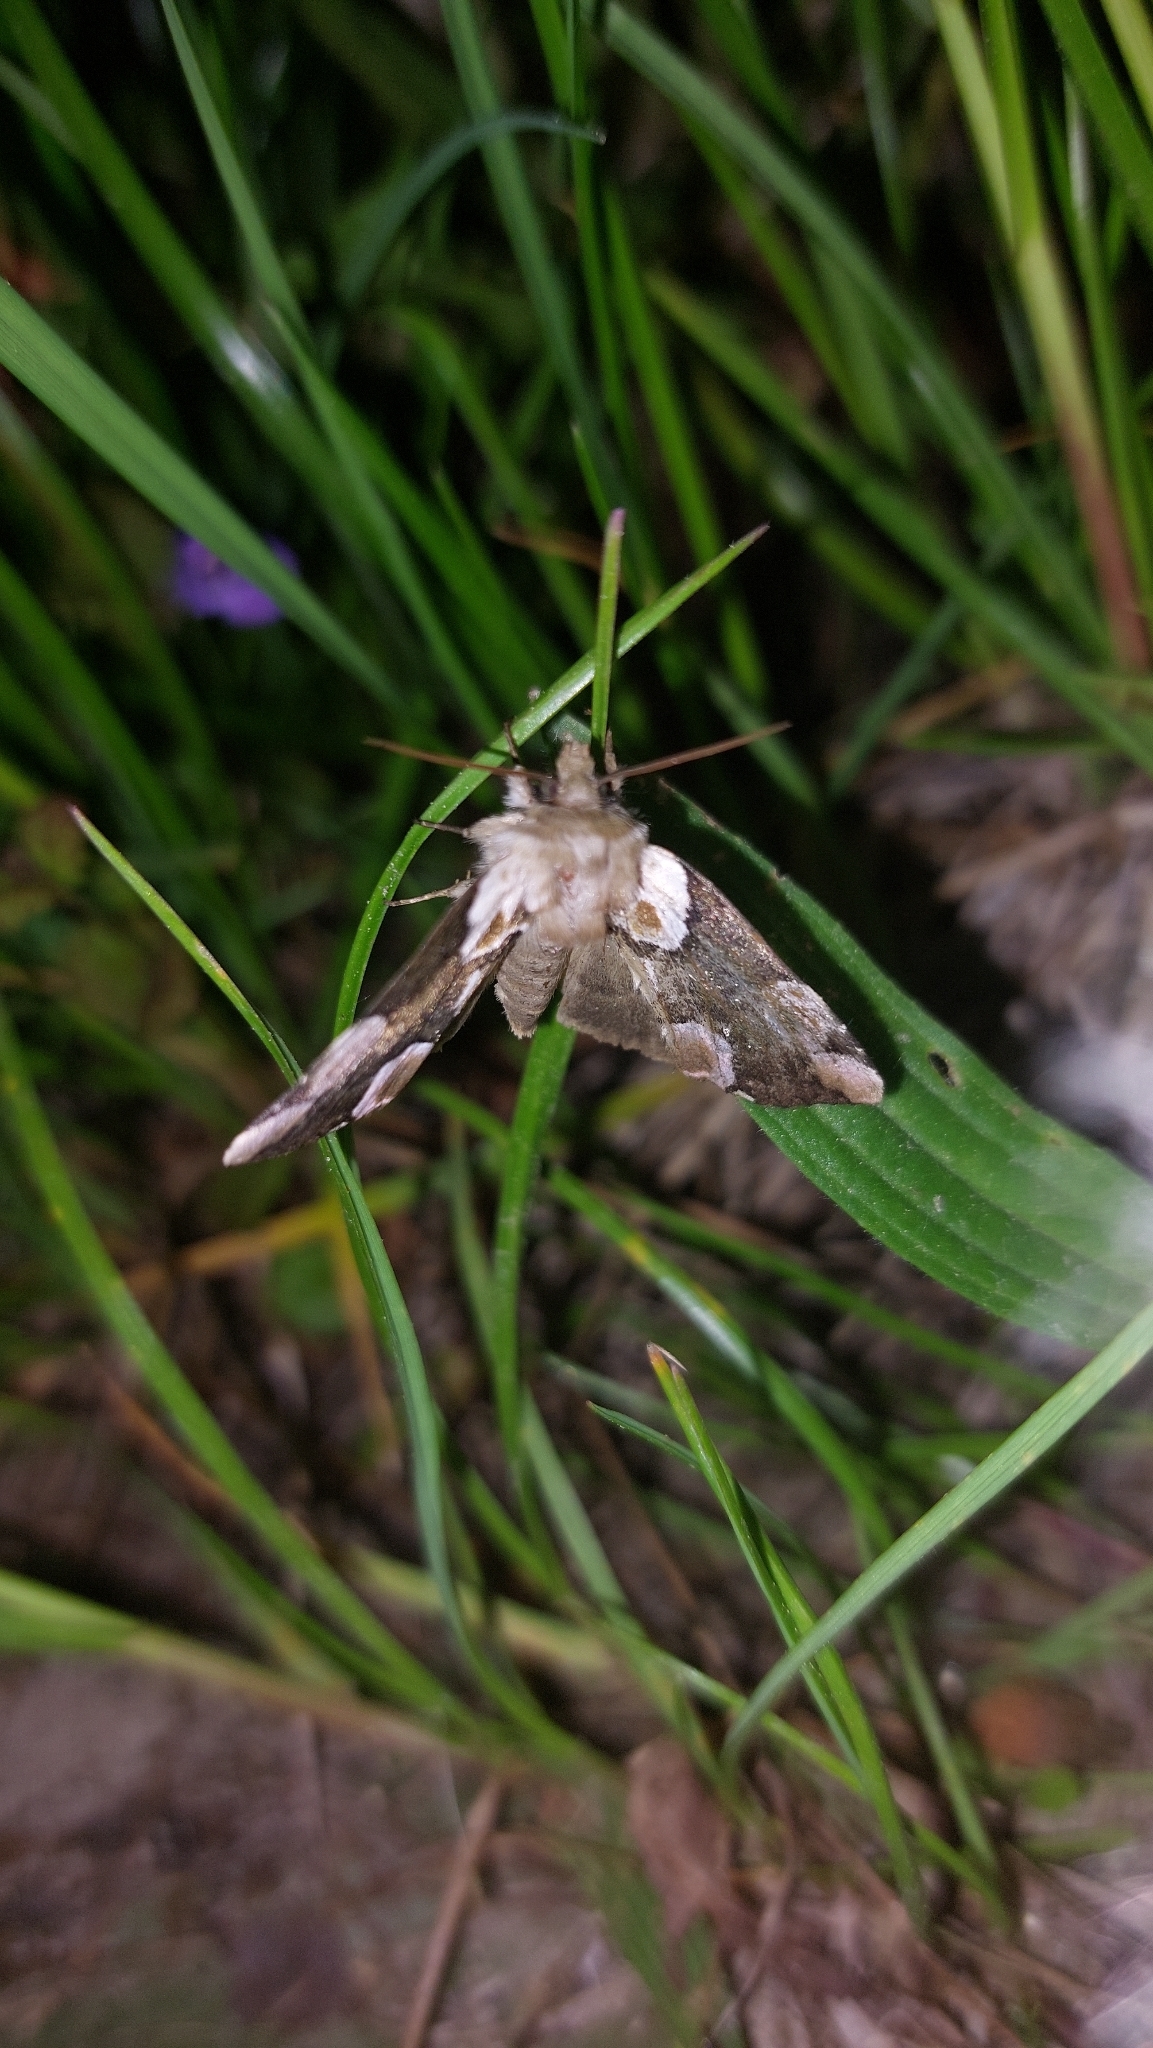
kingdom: Animalia
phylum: Arthropoda
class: Insecta
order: Lepidoptera
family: Drepanidae
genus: Thyatira
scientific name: Thyatira batis
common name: Peach blossom
